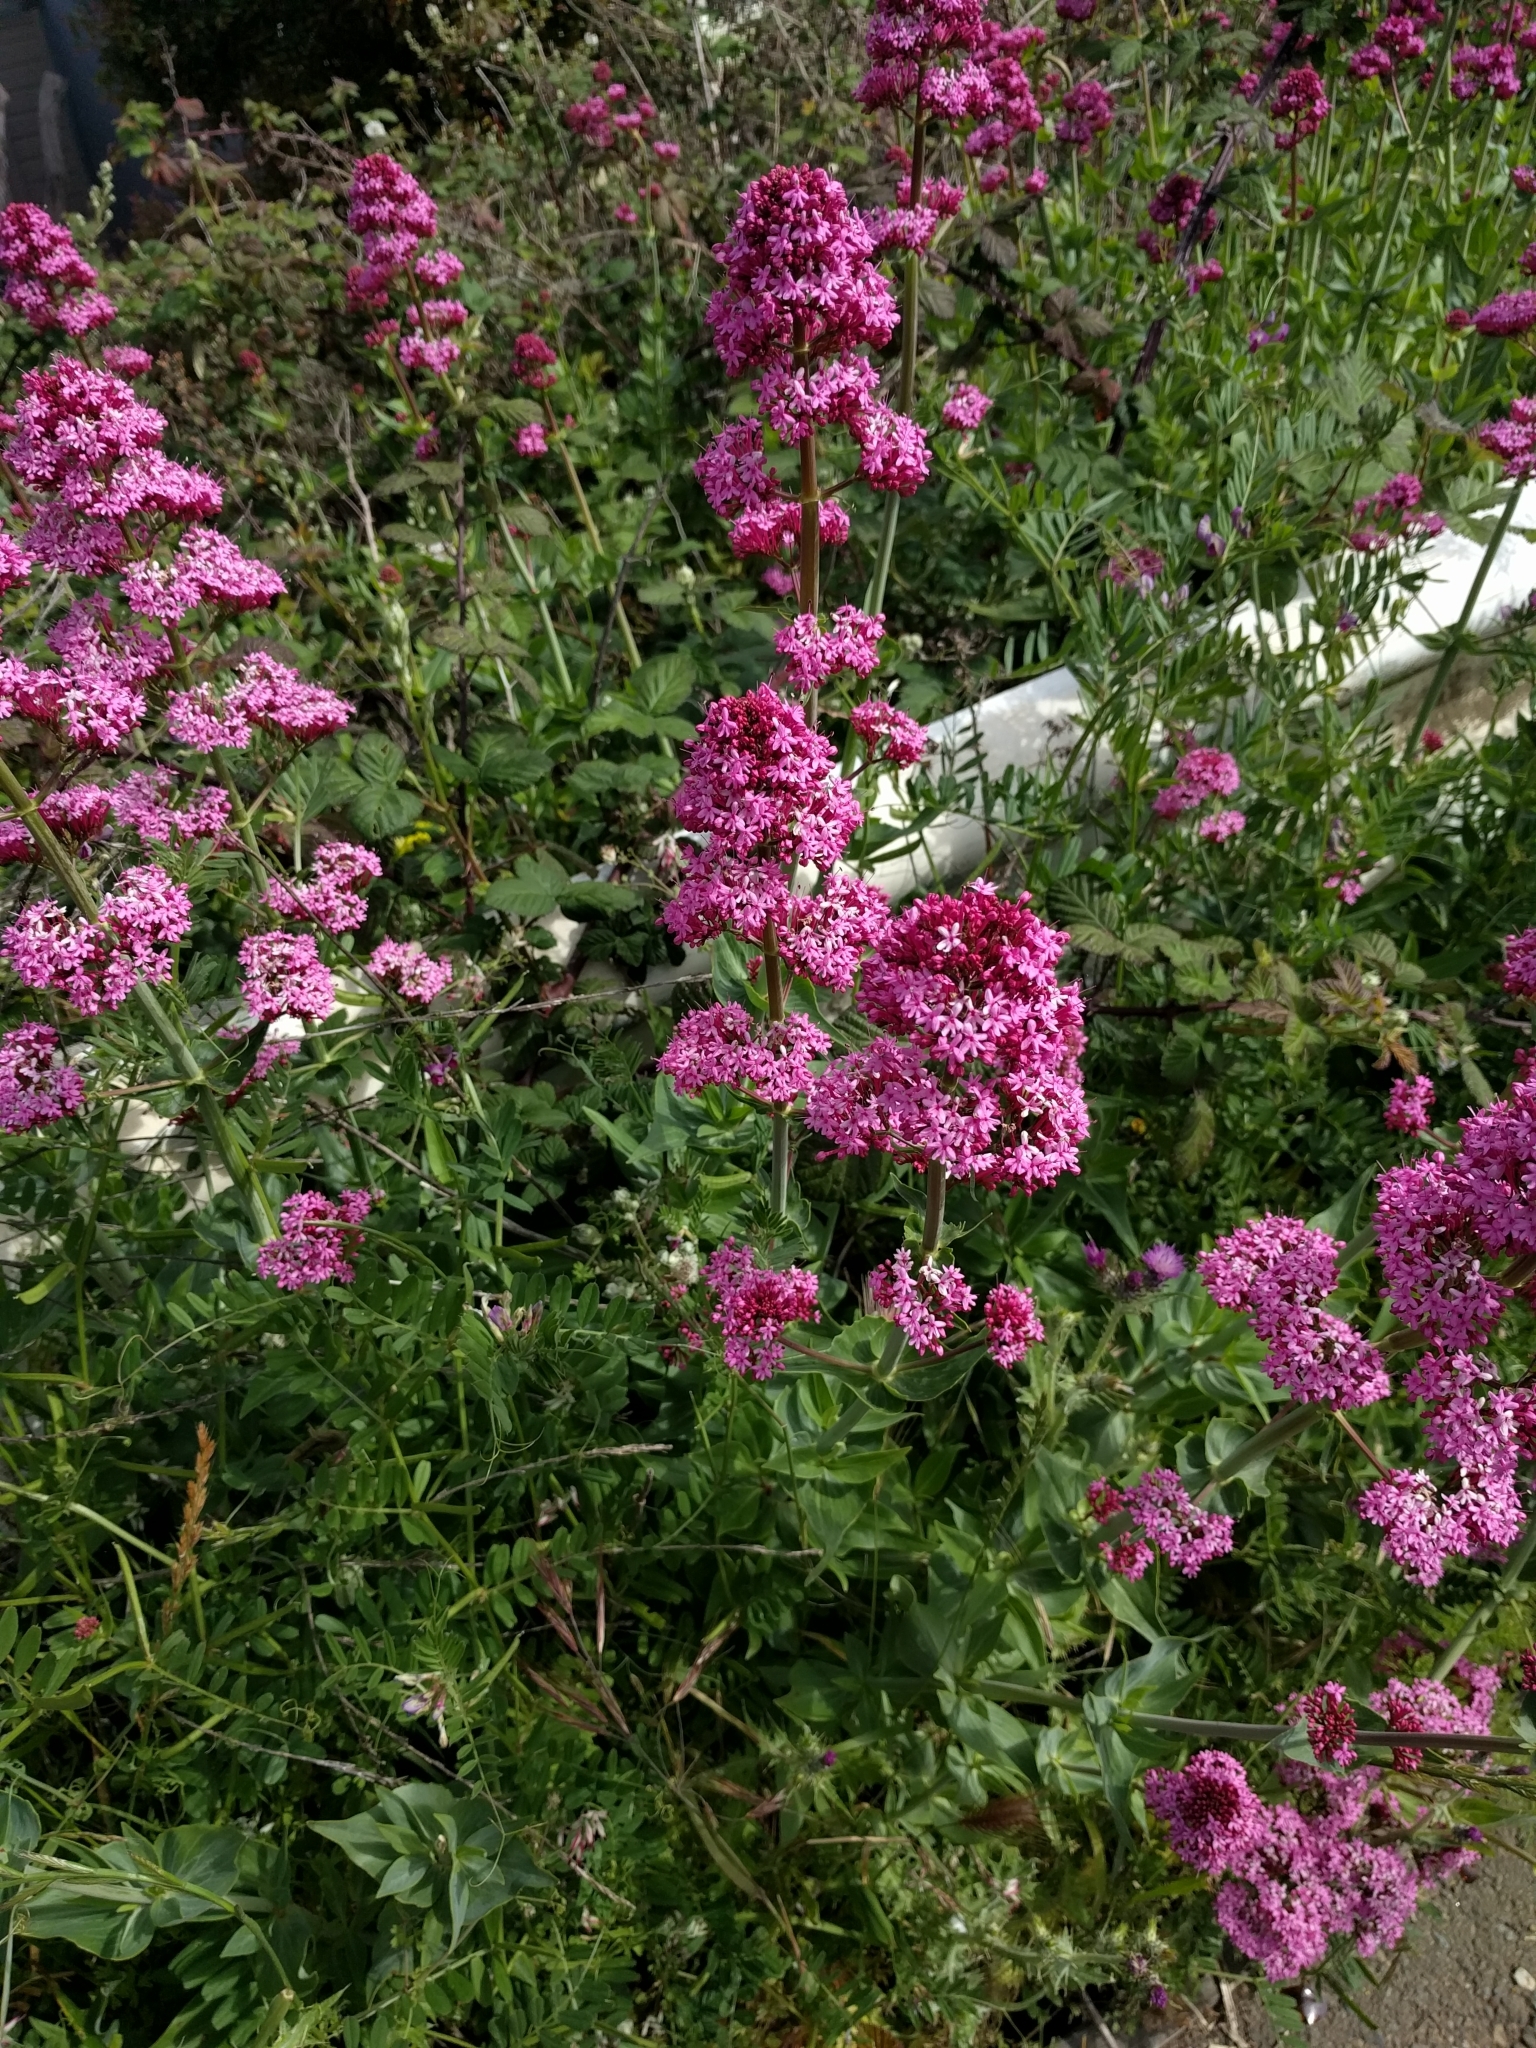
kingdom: Plantae
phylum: Tracheophyta
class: Magnoliopsida
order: Dipsacales
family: Caprifoliaceae
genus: Centranthus
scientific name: Centranthus ruber
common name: Red valerian
